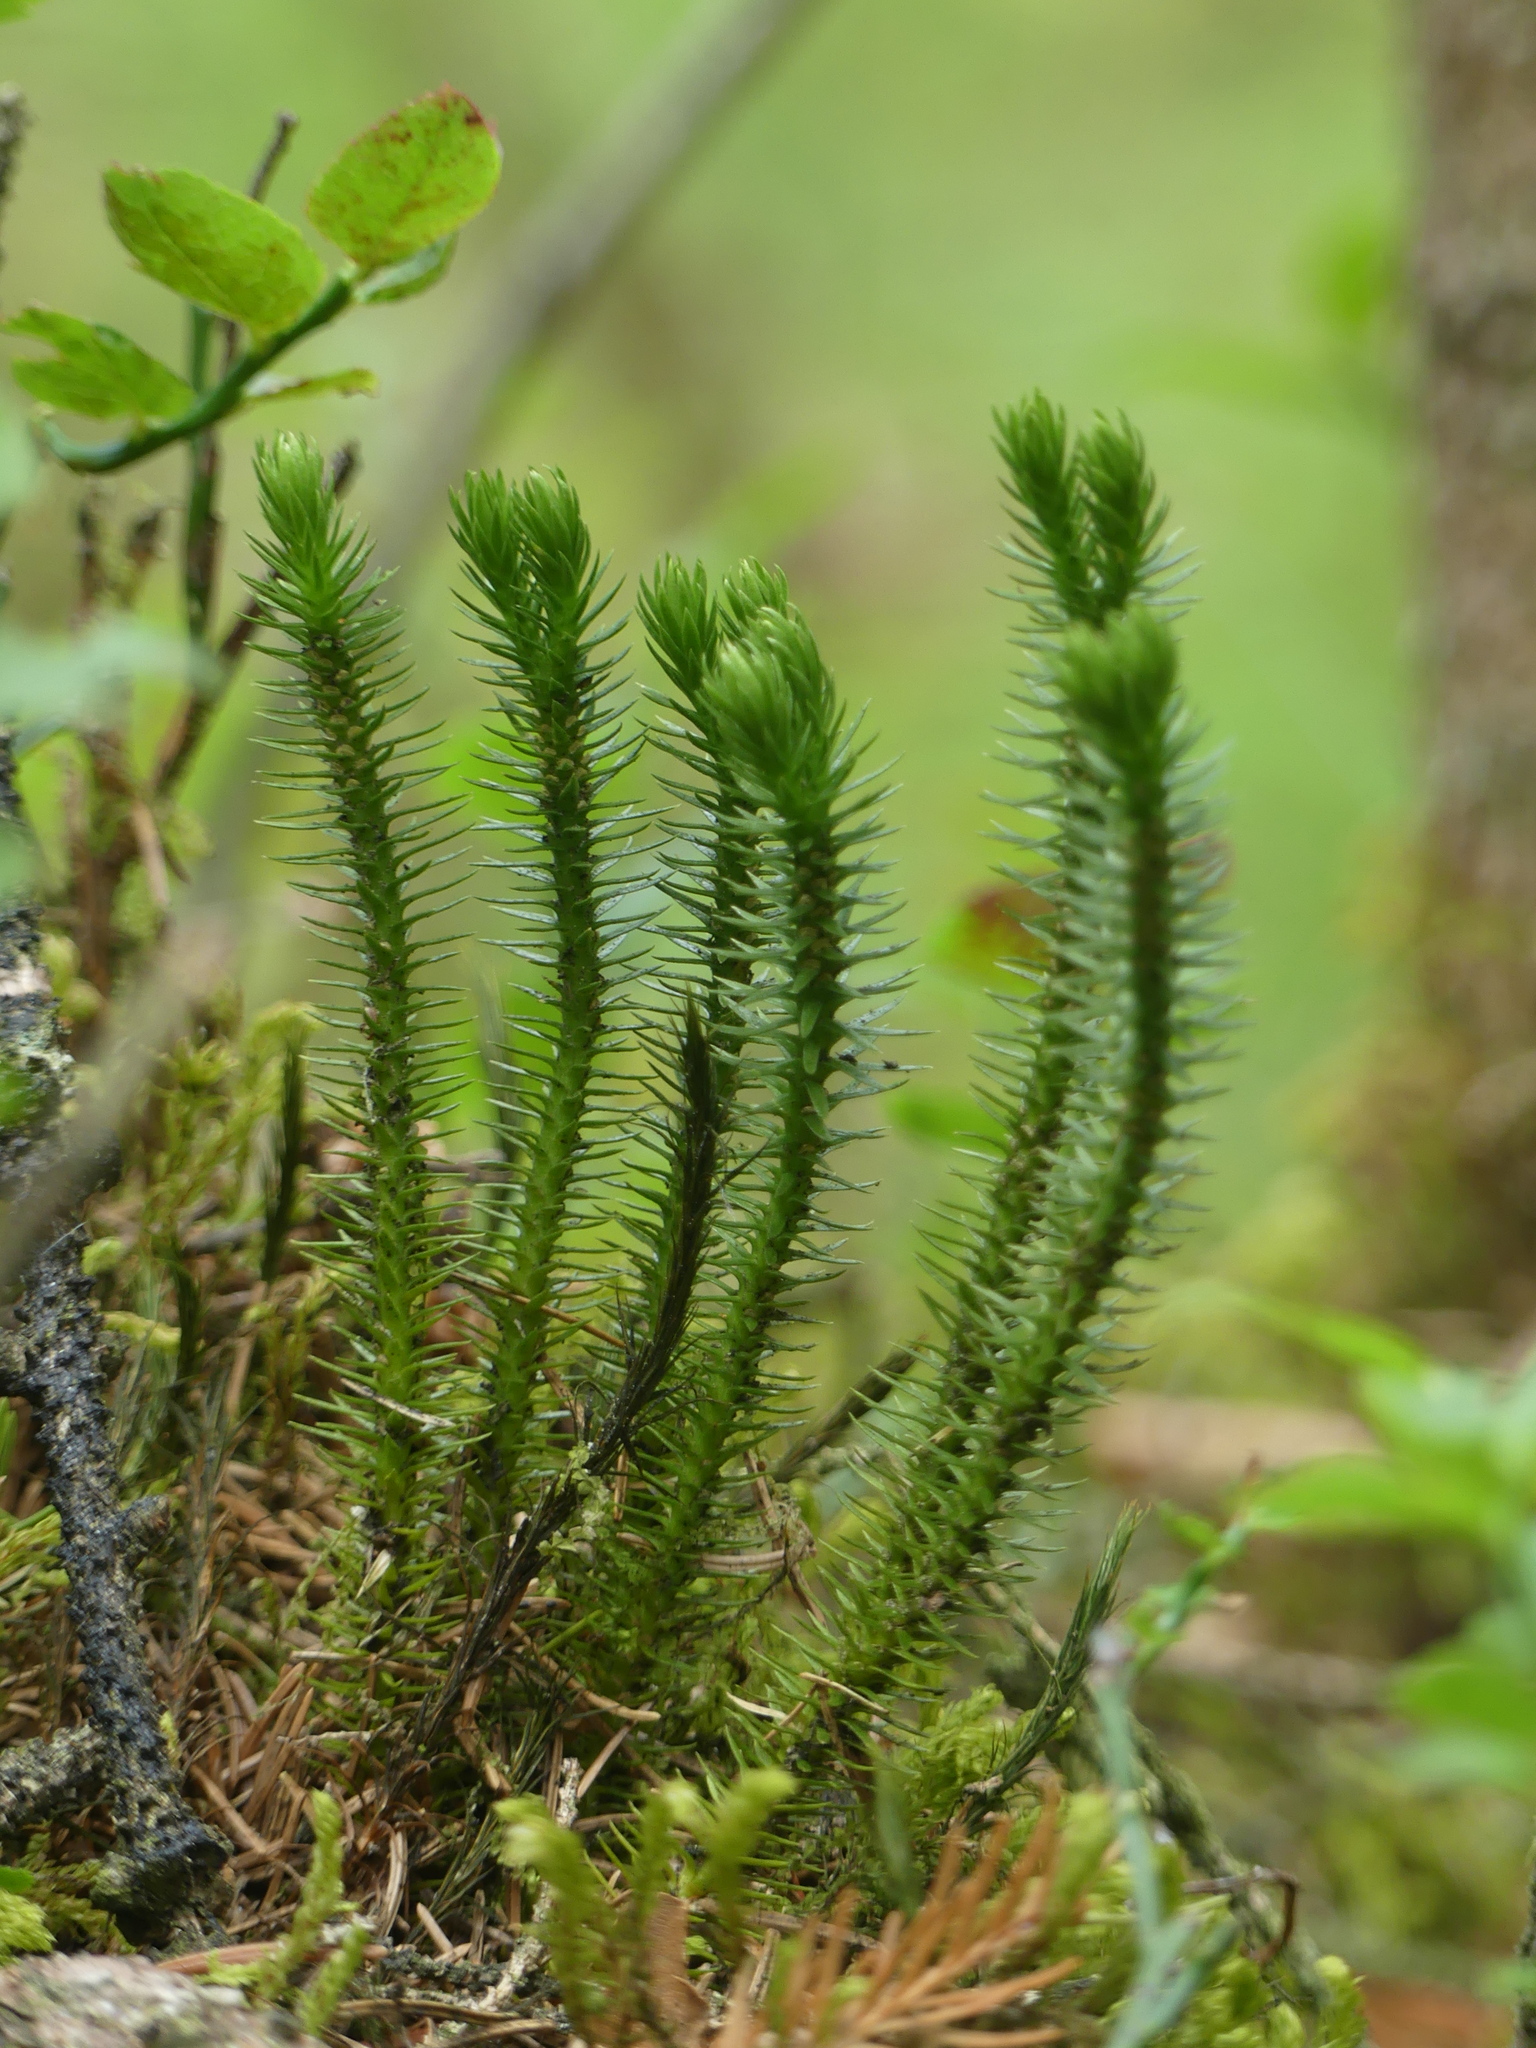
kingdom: Plantae
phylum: Tracheophyta
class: Lycopodiopsida
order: Lycopodiales
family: Lycopodiaceae
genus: Huperzia
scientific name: Huperzia selago
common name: Northern firmoss
